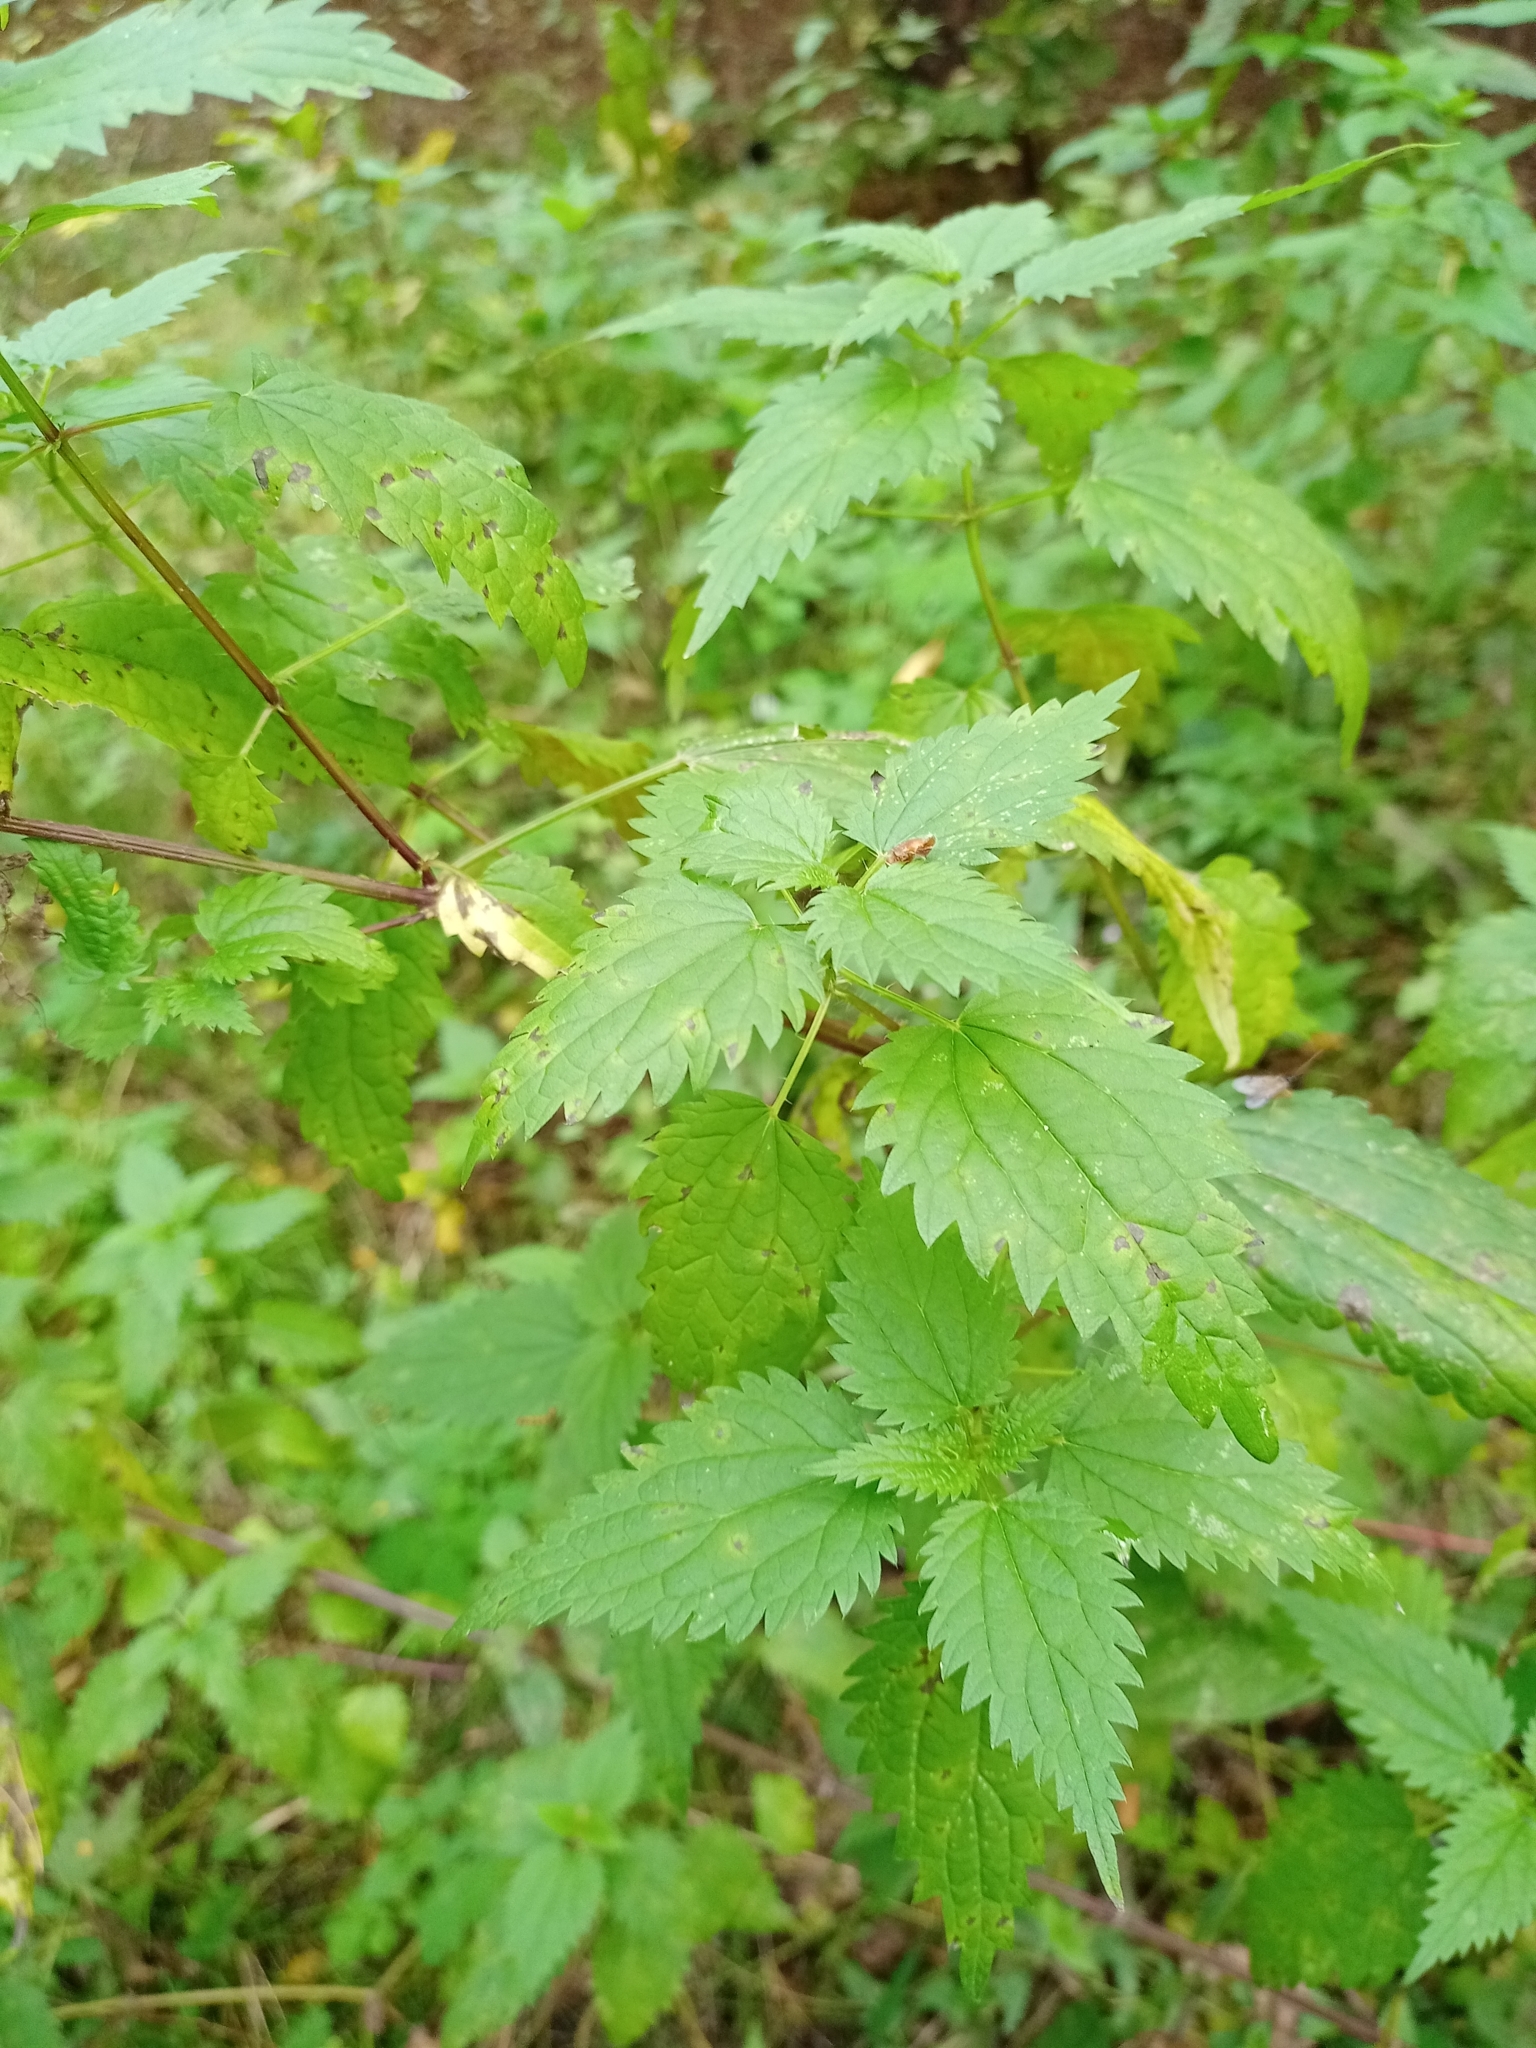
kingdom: Plantae
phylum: Tracheophyta
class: Magnoliopsida
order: Rosales
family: Urticaceae
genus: Urtica
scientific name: Urtica dioica
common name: Common nettle
